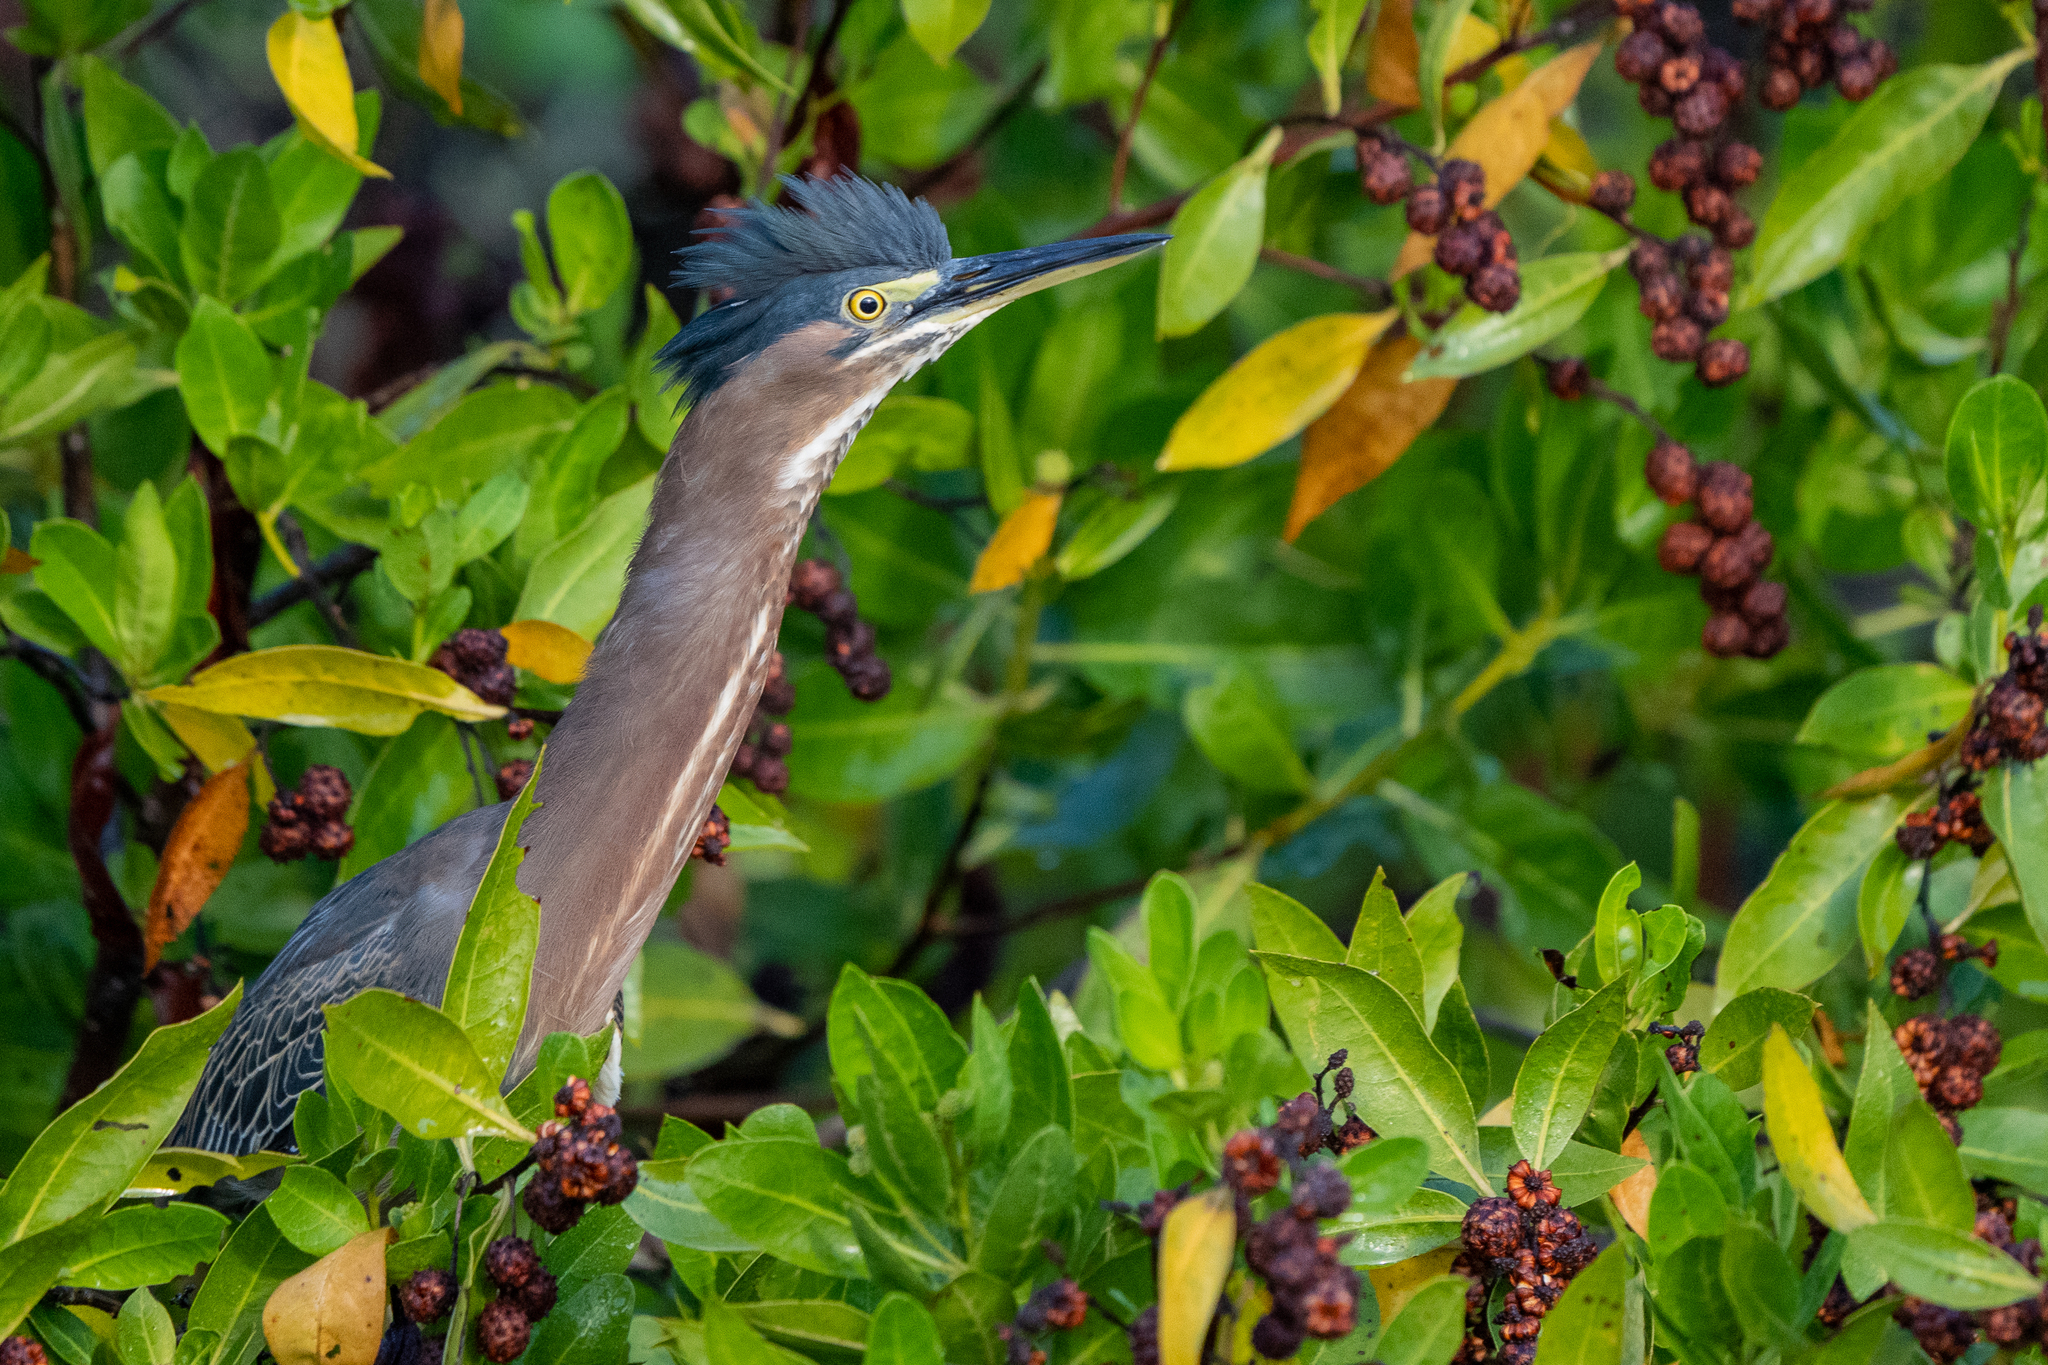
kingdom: Animalia
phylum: Chordata
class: Aves
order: Pelecaniformes
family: Ardeidae
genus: Butorides
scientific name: Butorides virescens
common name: Green heron
